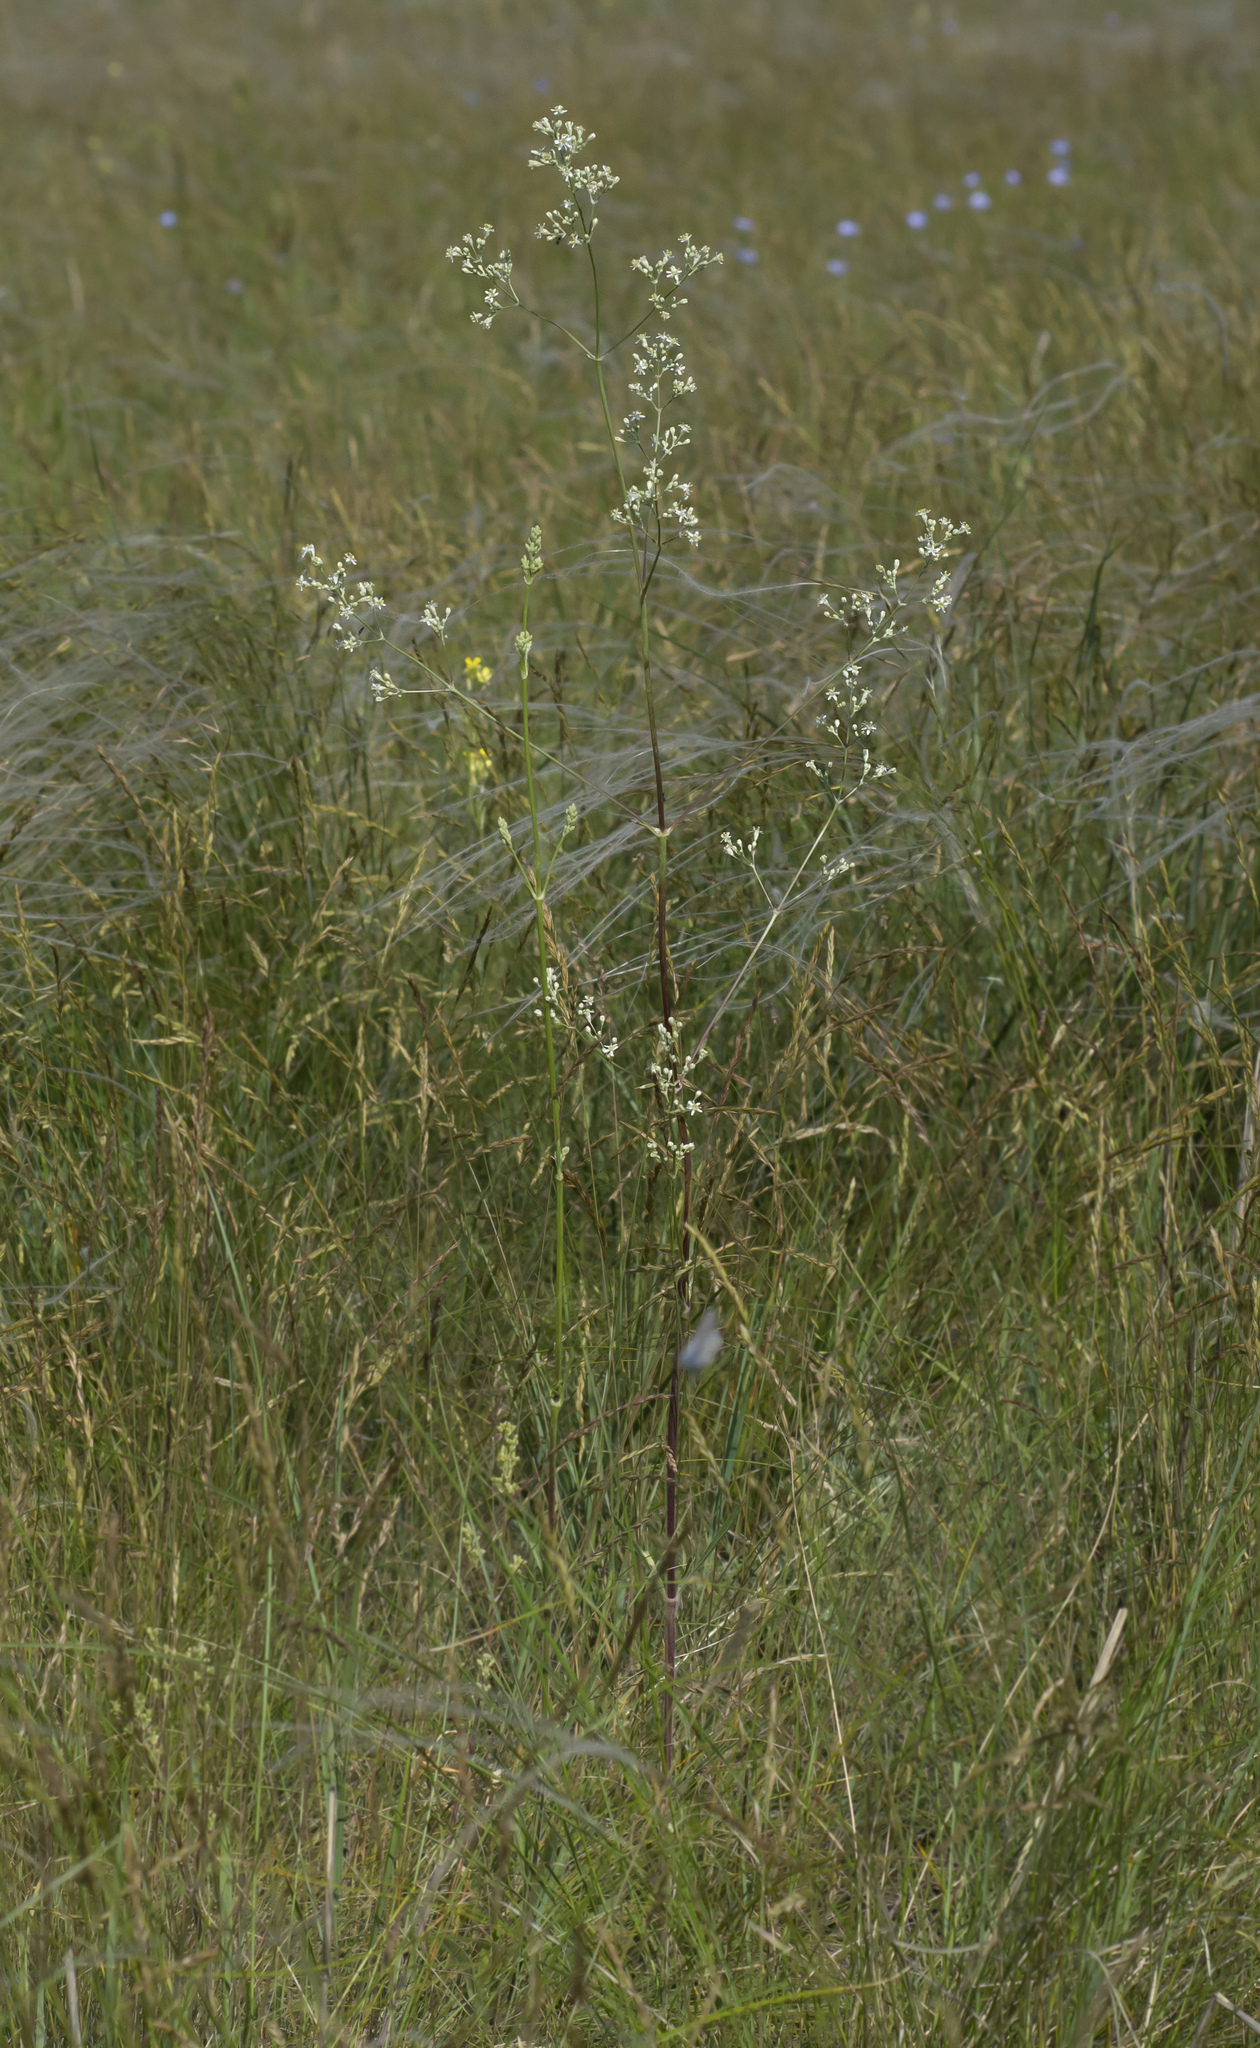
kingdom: Plantae
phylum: Tracheophyta
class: Magnoliopsida
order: Caryophyllales
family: Caryophyllaceae
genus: Silene
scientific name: Silene wolgensis
